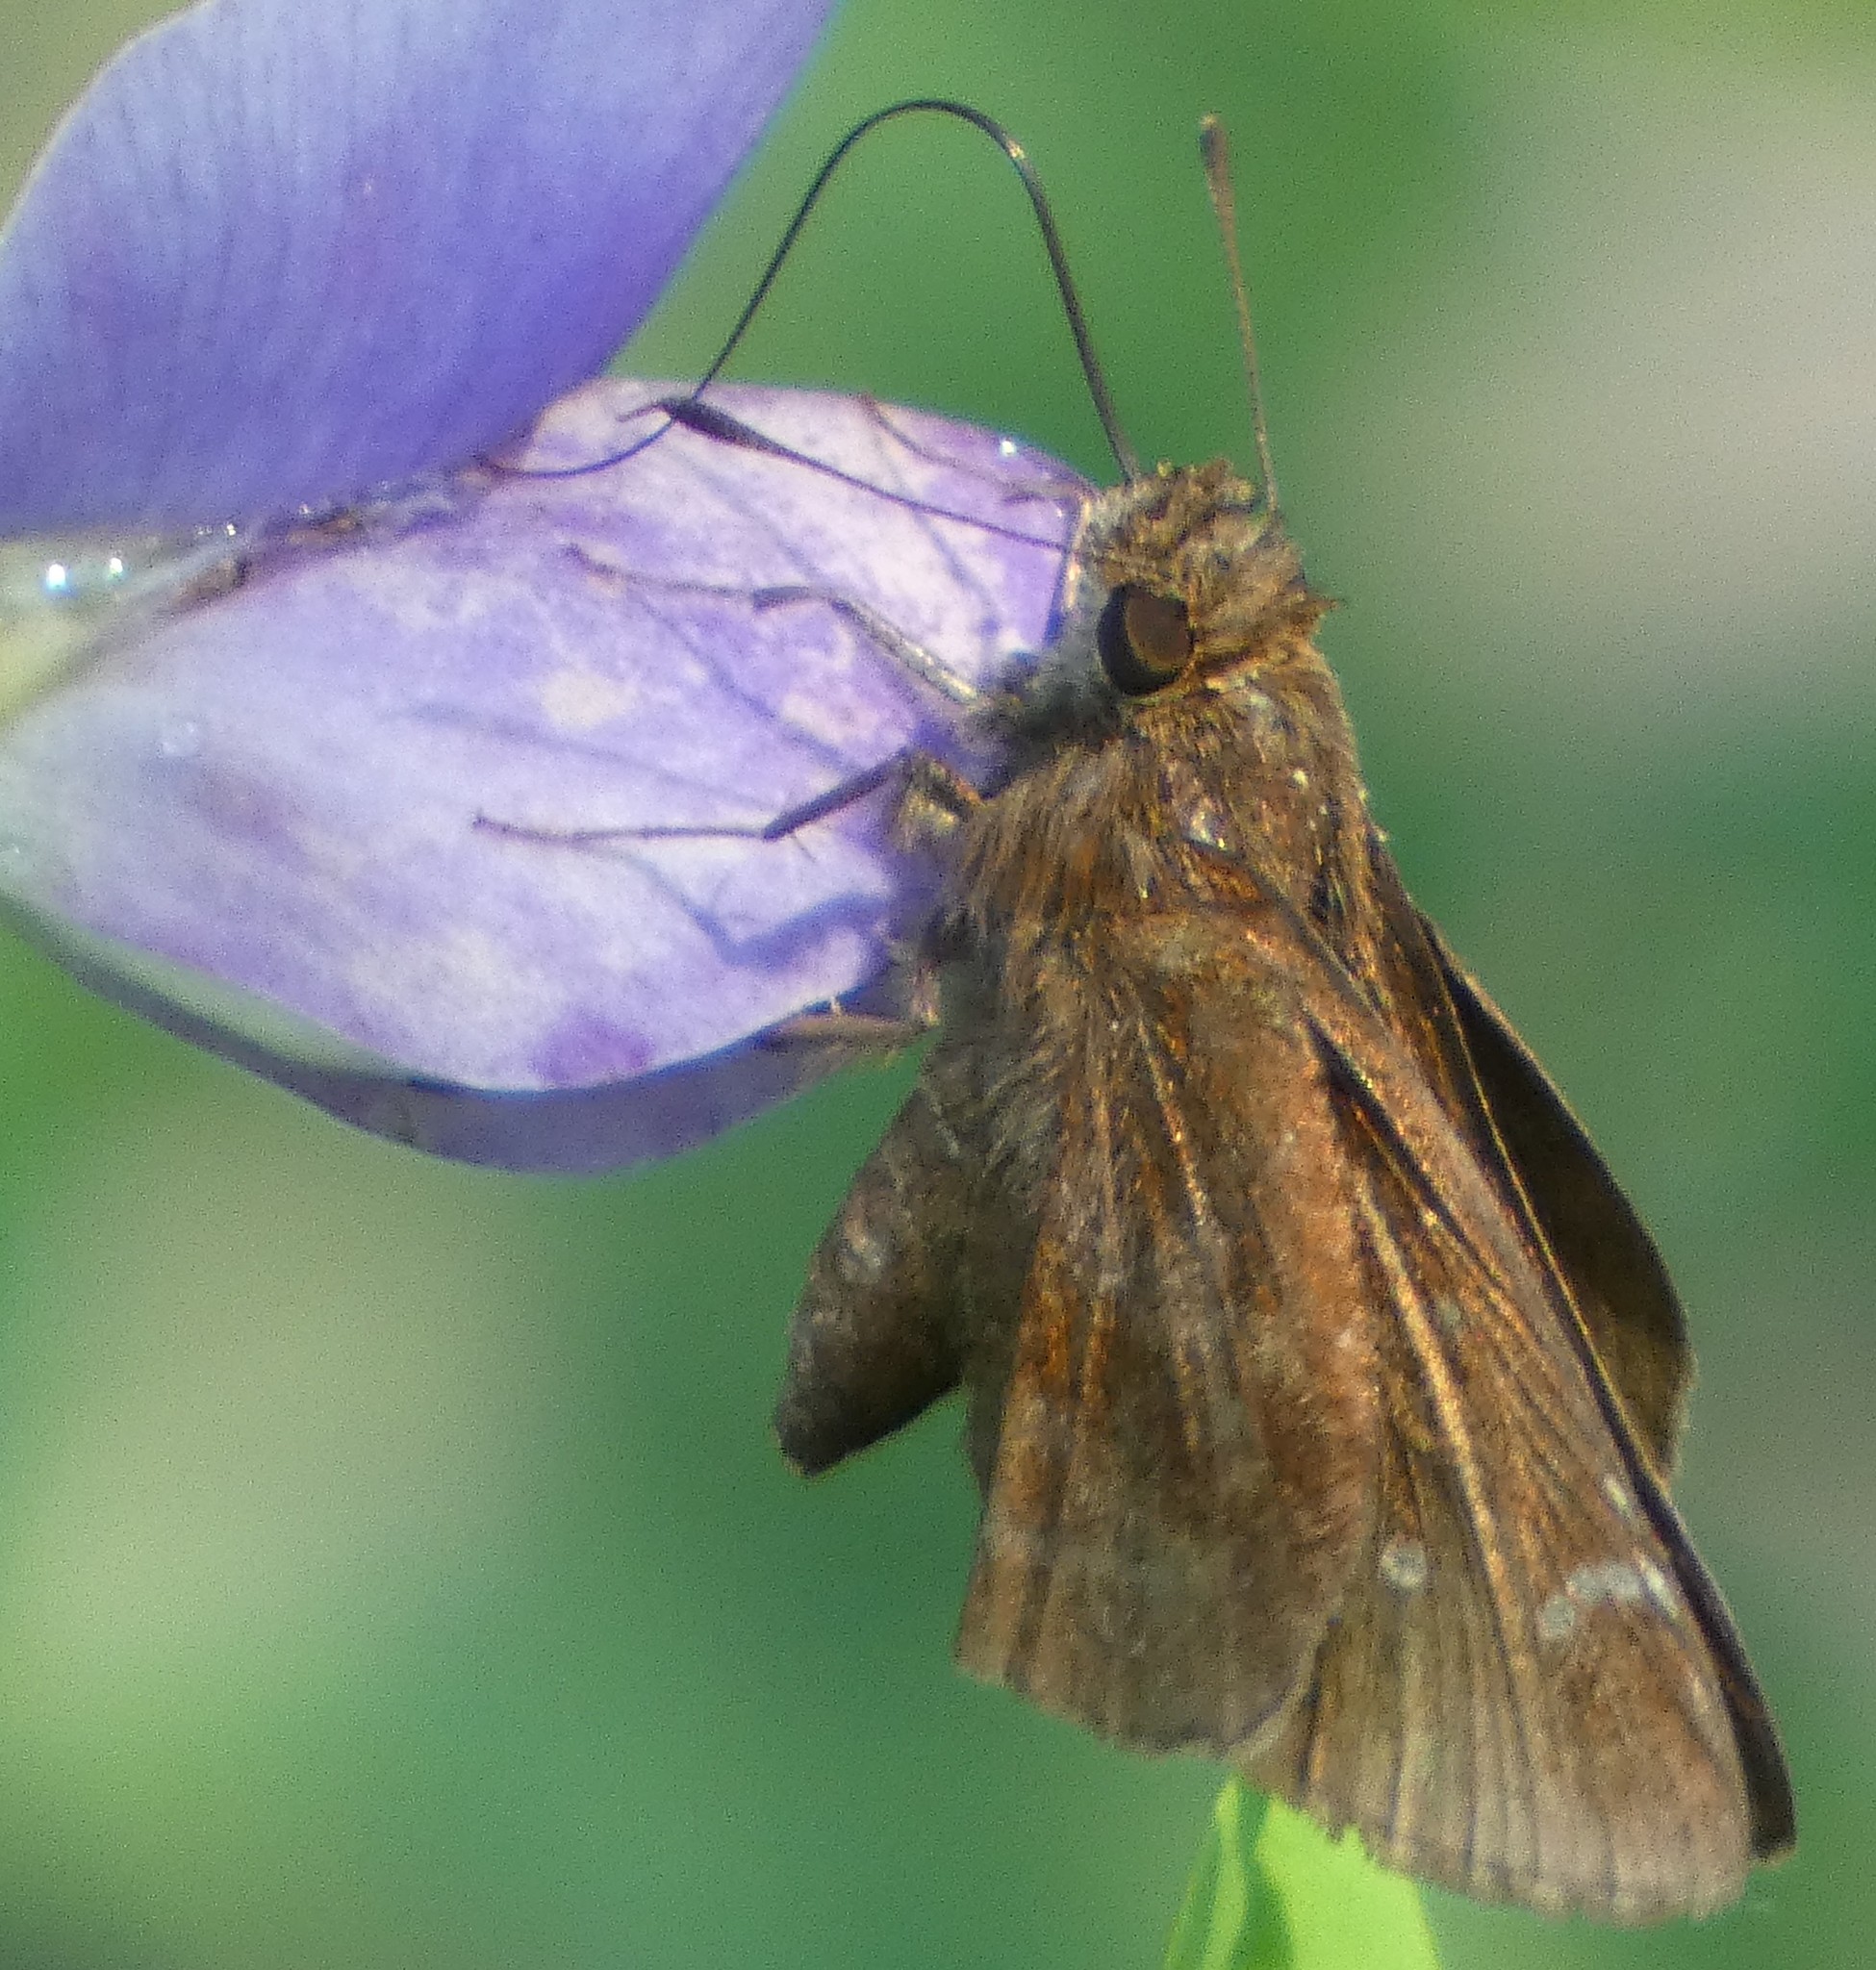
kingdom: Animalia
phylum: Arthropoda
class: Insecta
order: Lepidoptera
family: Hesperiidae
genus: Lerema
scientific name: Lerema accius
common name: Clouded skipper
